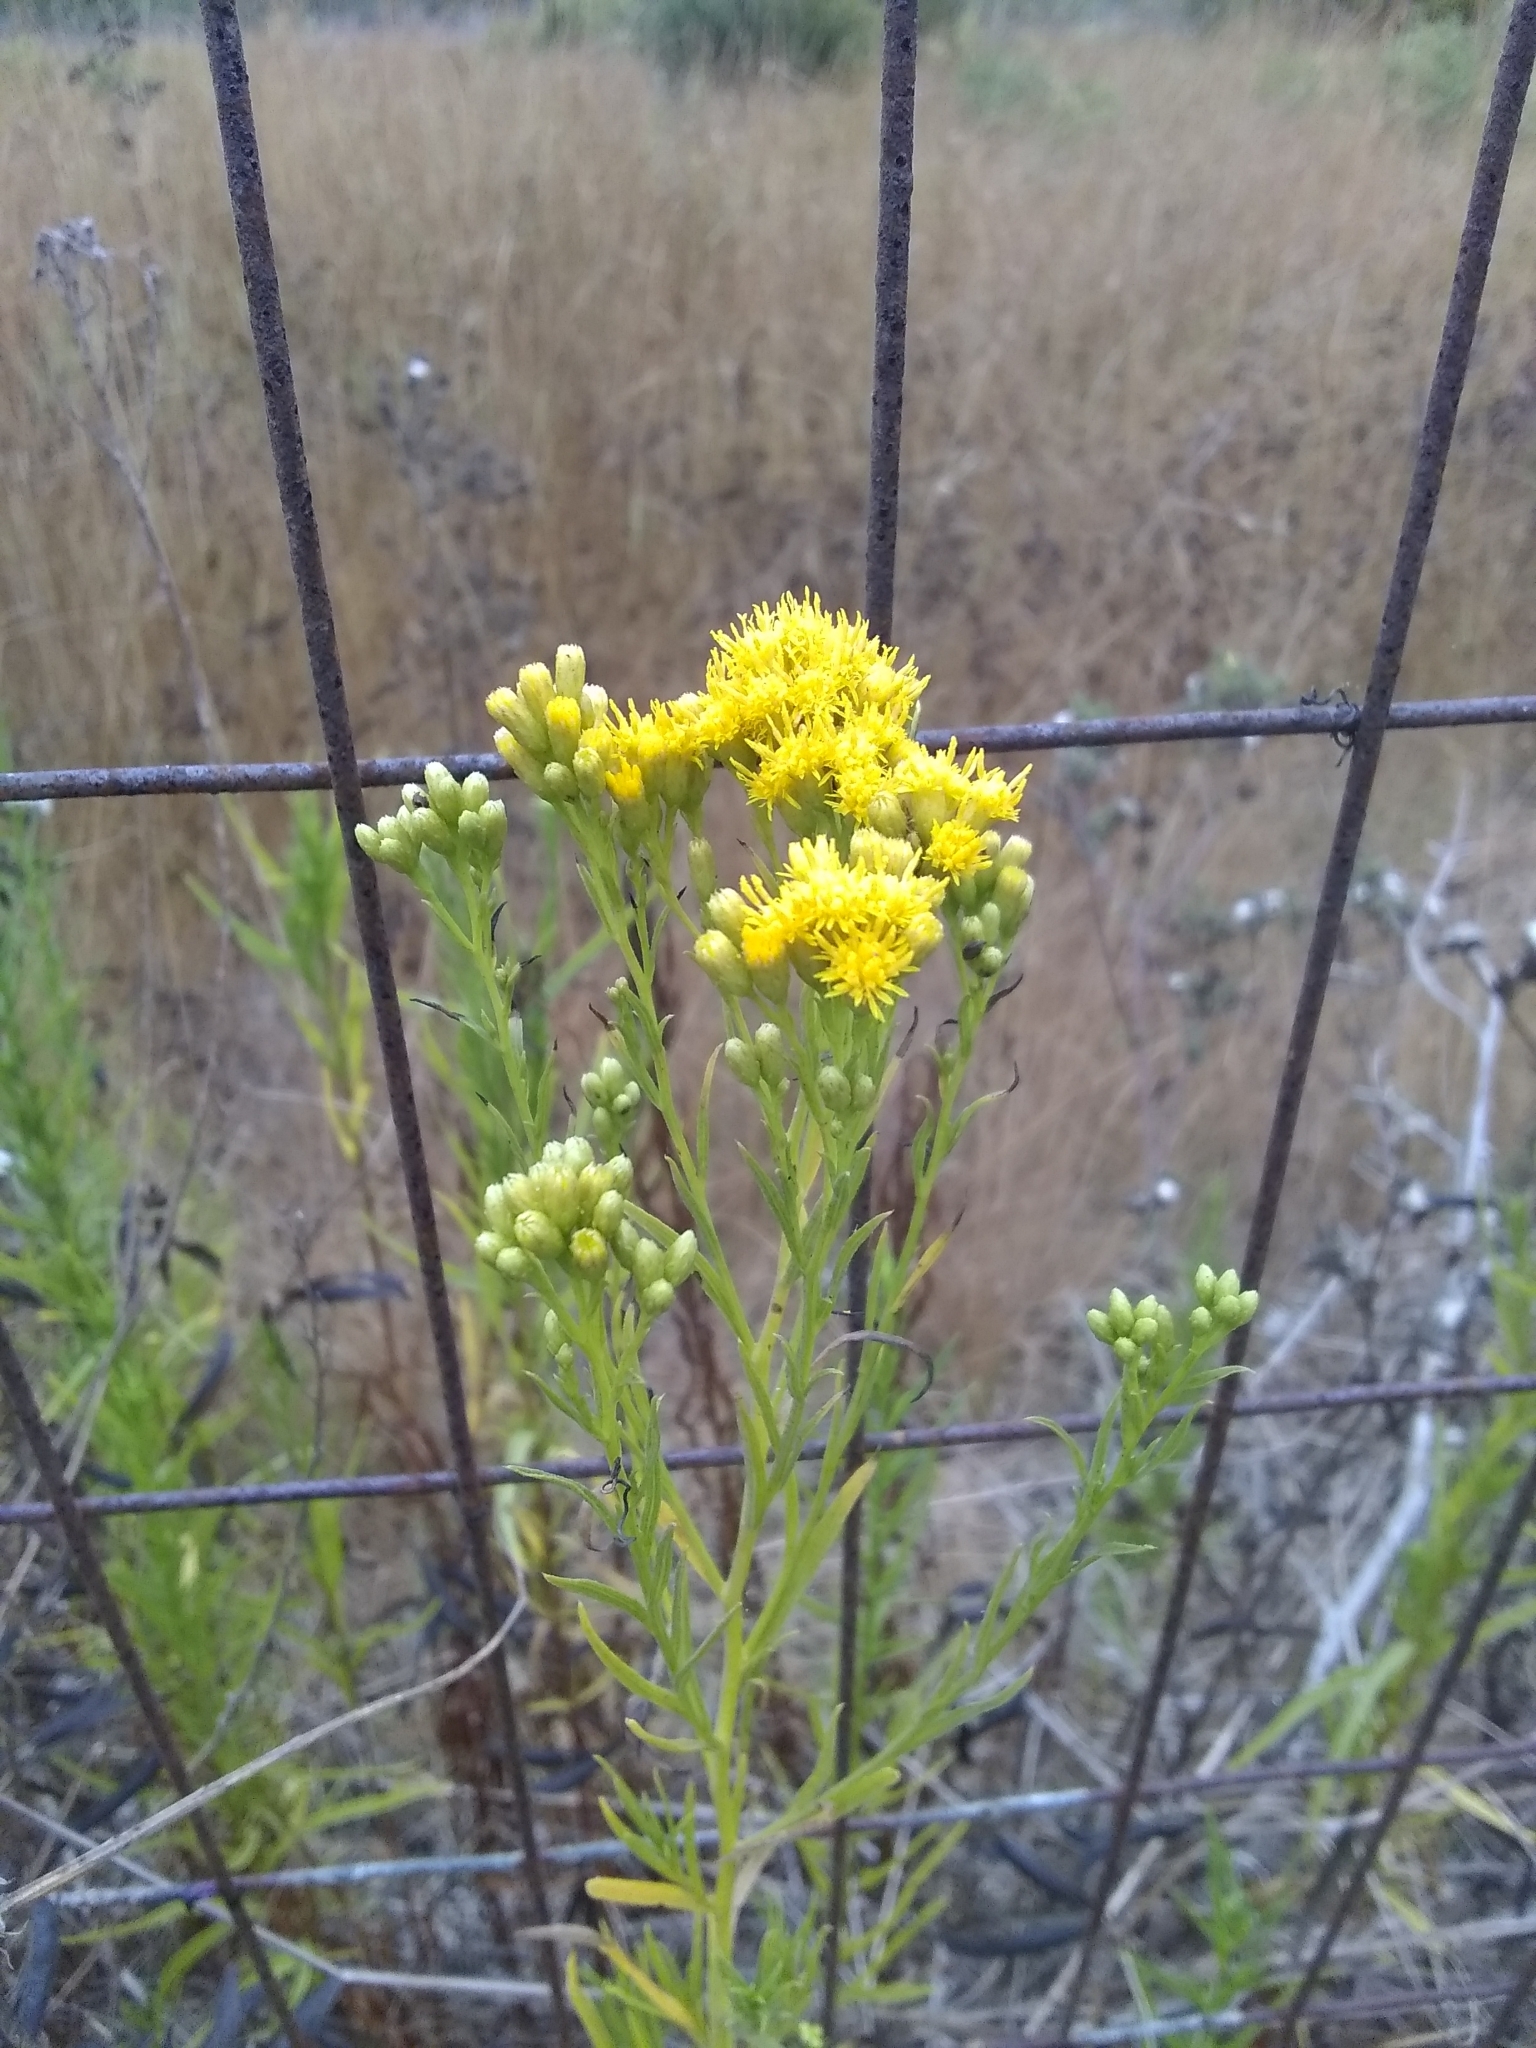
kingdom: Plantae
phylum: Tracheophyta
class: Magnoliopsida
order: Asterales
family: Asteraceae
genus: Euthamia
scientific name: Euthamia occidentalis
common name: Western goldentop
